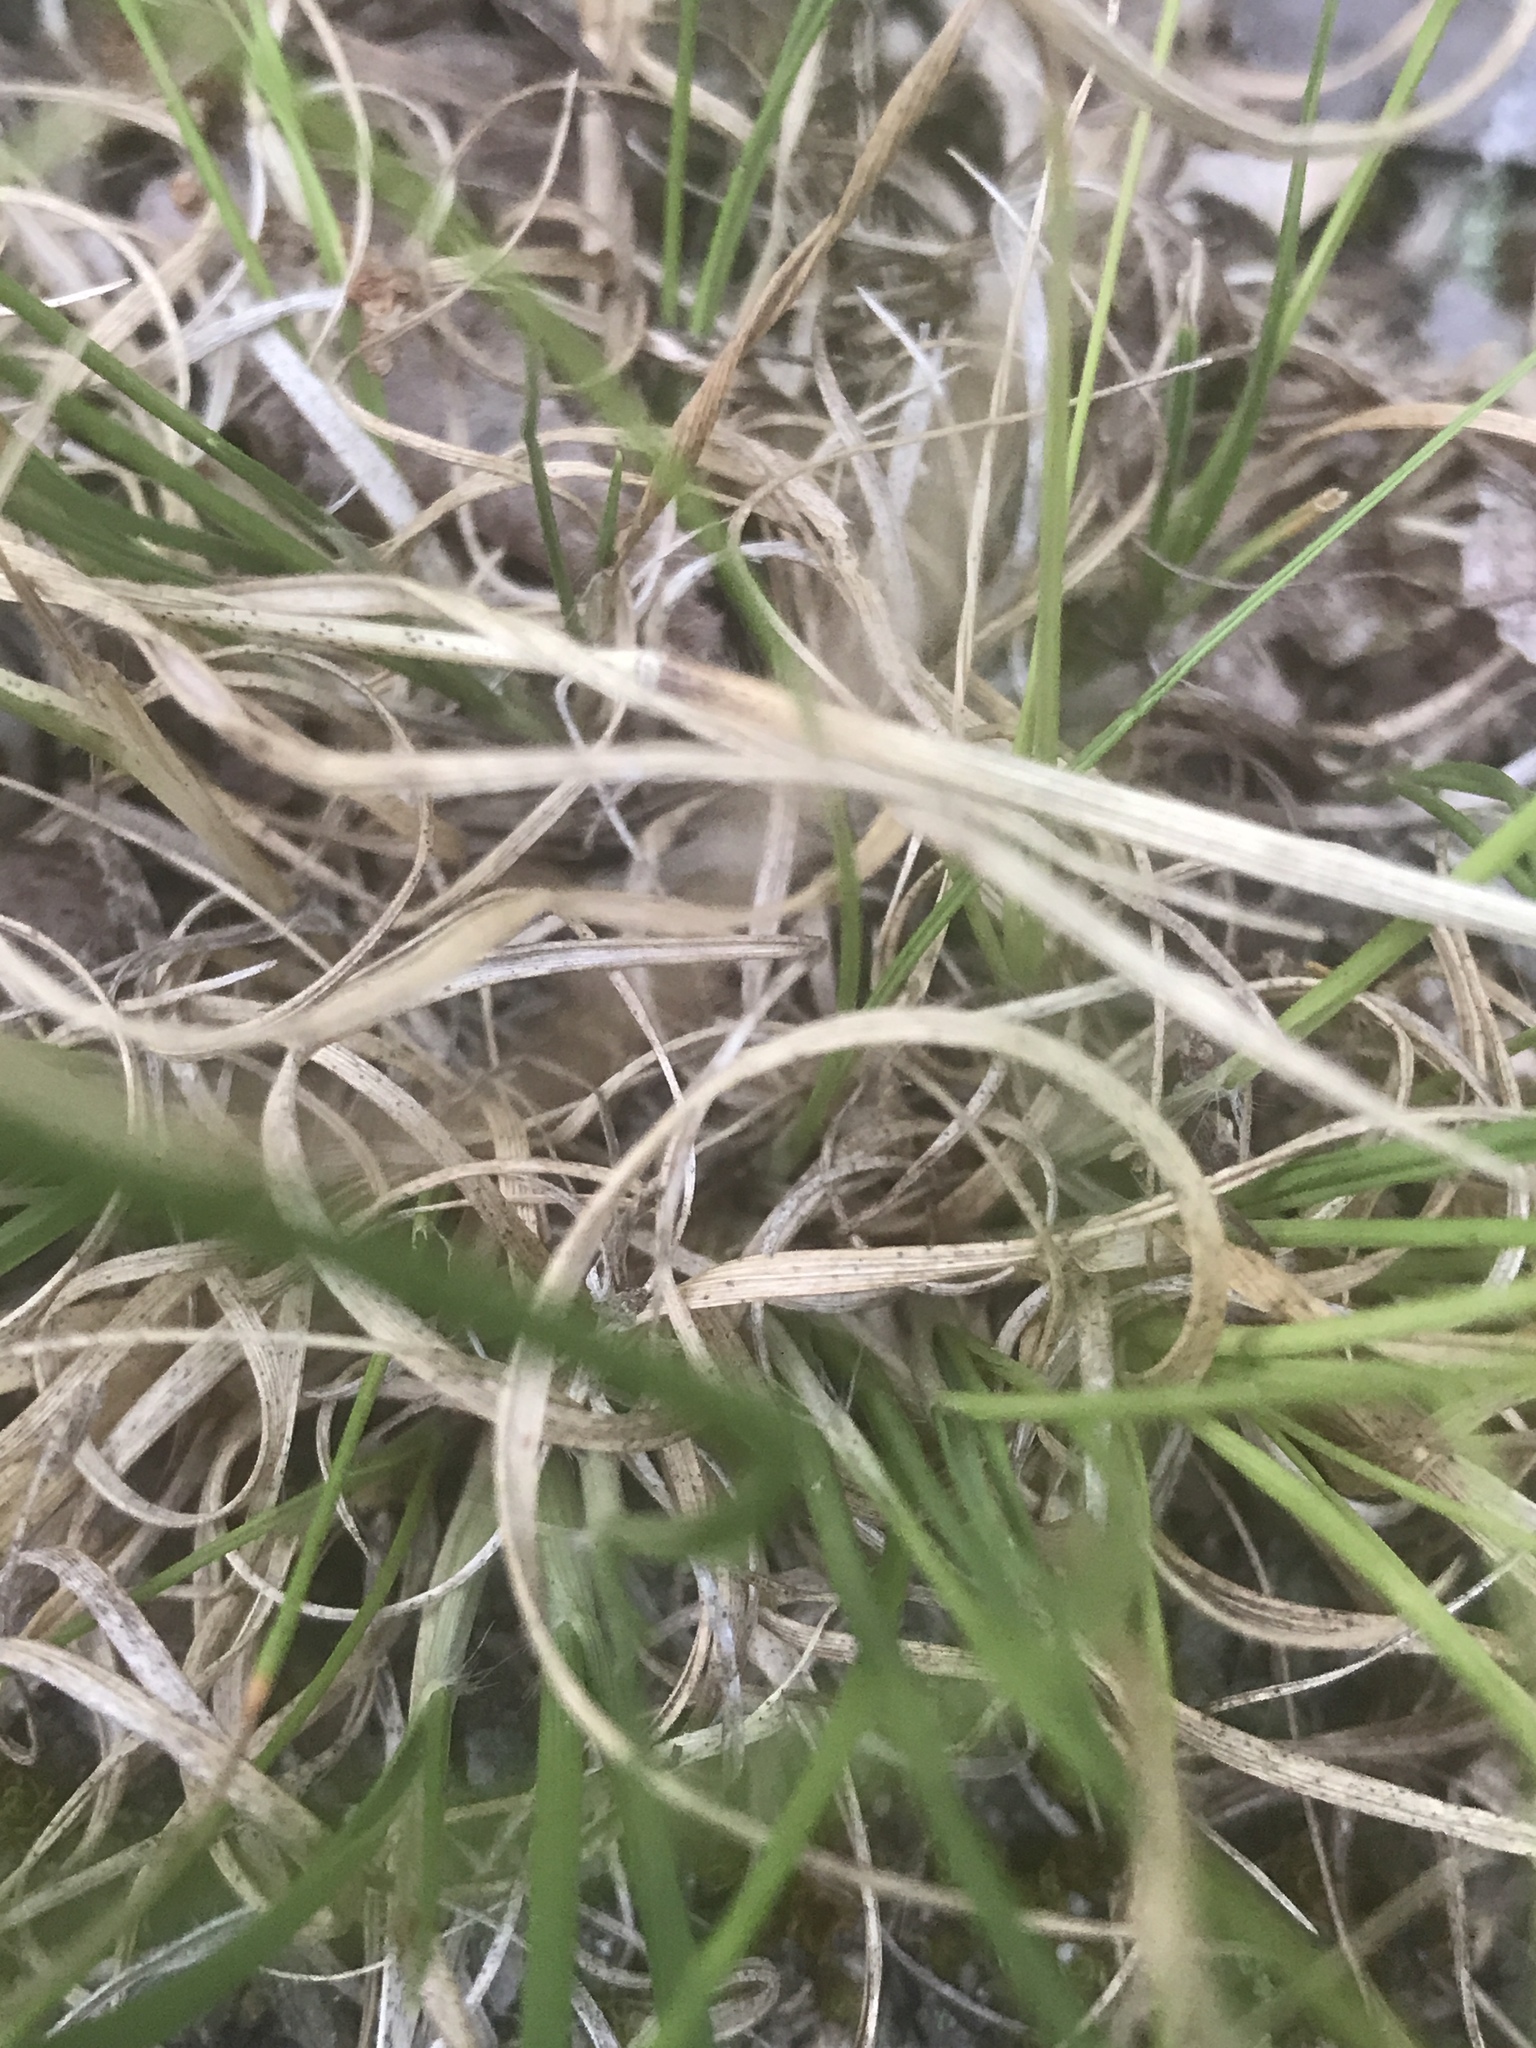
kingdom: Plantae
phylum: Tracheophyta
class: Liliopsida
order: Poales
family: Poaceae
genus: Danthonia
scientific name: Danthonia spicata
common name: Common wild oatgrass
